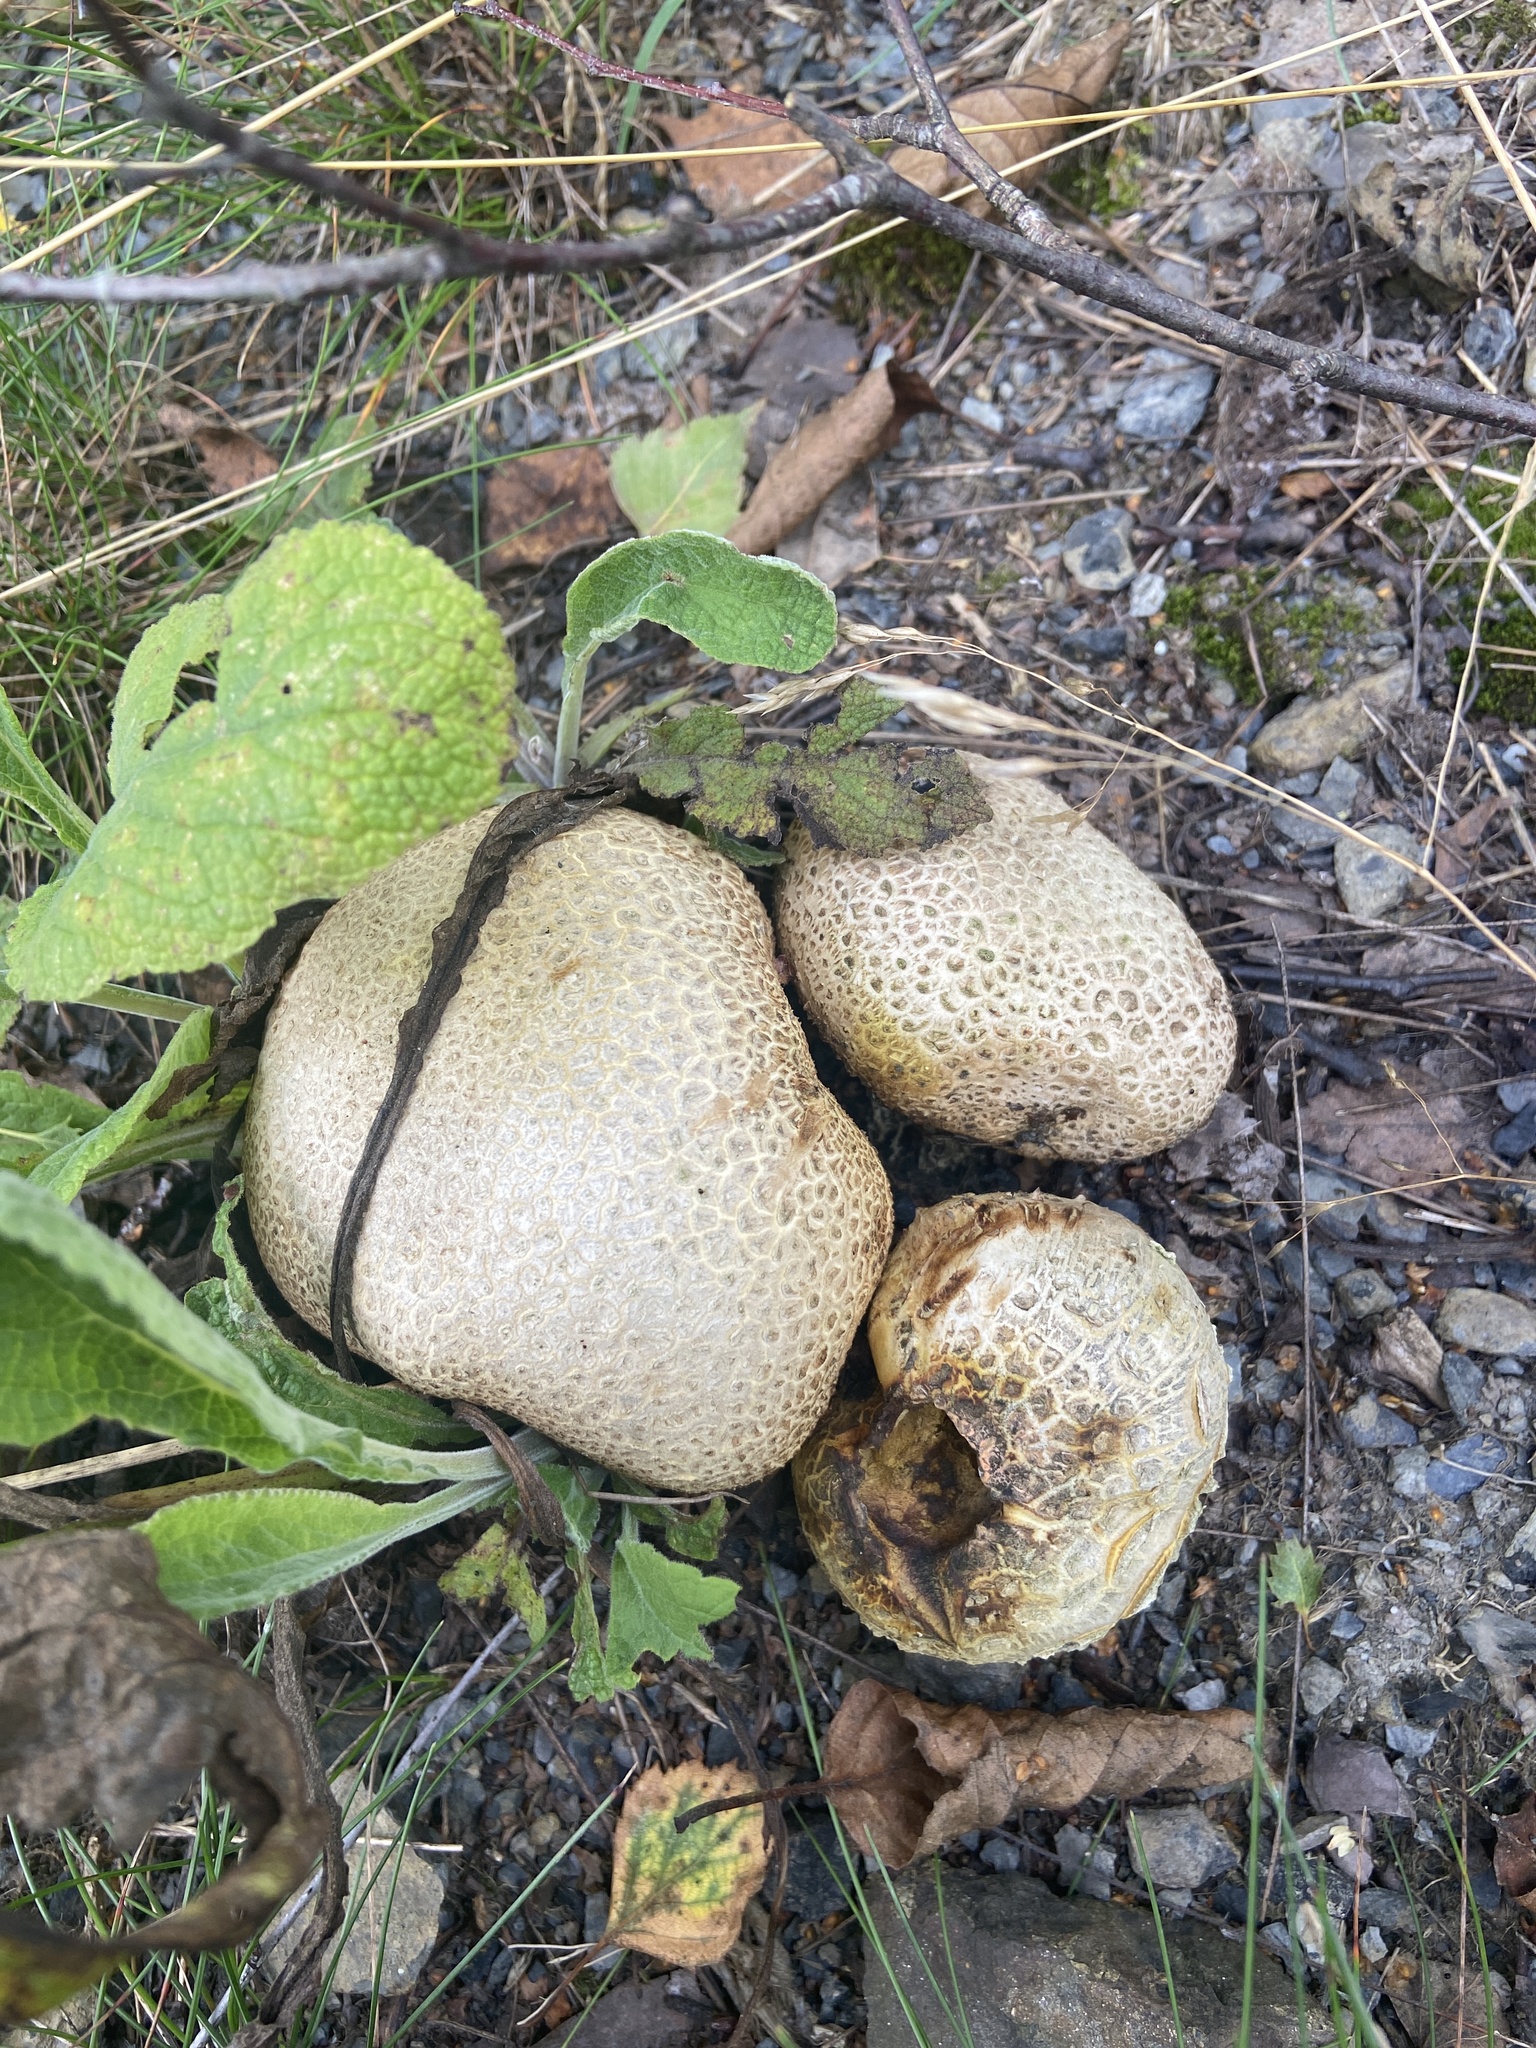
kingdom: Fungi
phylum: Basidiomycota
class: Agaricomycetes
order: Boletales
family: Sclerodermataceae
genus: Scleroderma
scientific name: Scleroderma citrinum
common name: Common earthball
